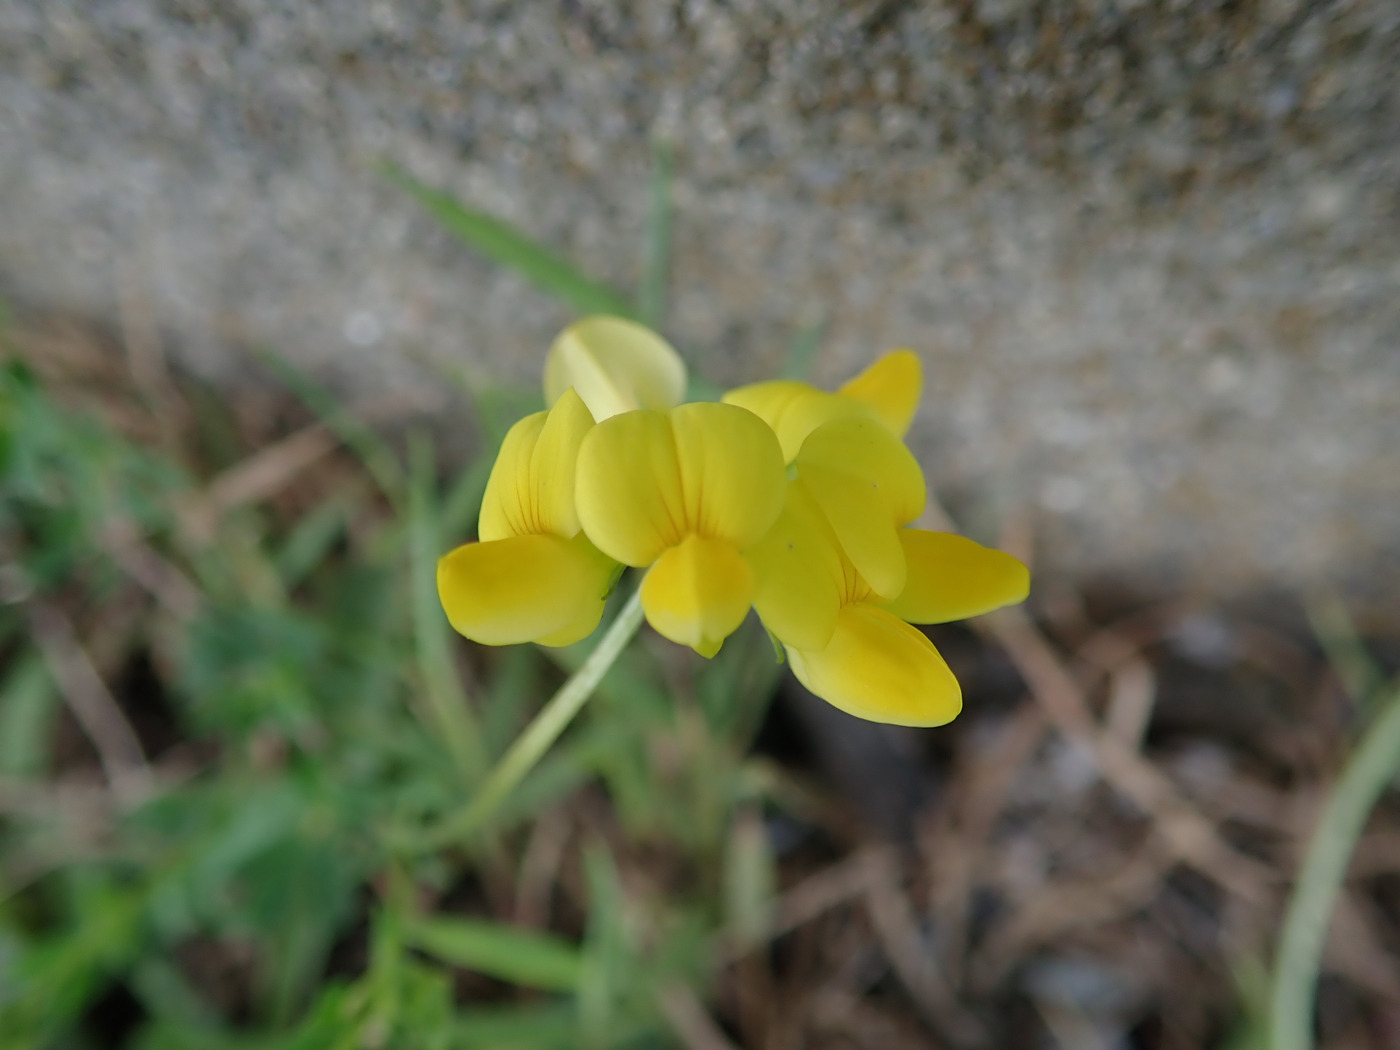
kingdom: Plantae
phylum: Tracheophyta
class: Magnoliopsida
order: Fabales
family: Fabaceae
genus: Lotus
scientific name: Lotus corniculatus
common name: Common bird's-foot-trefoil
